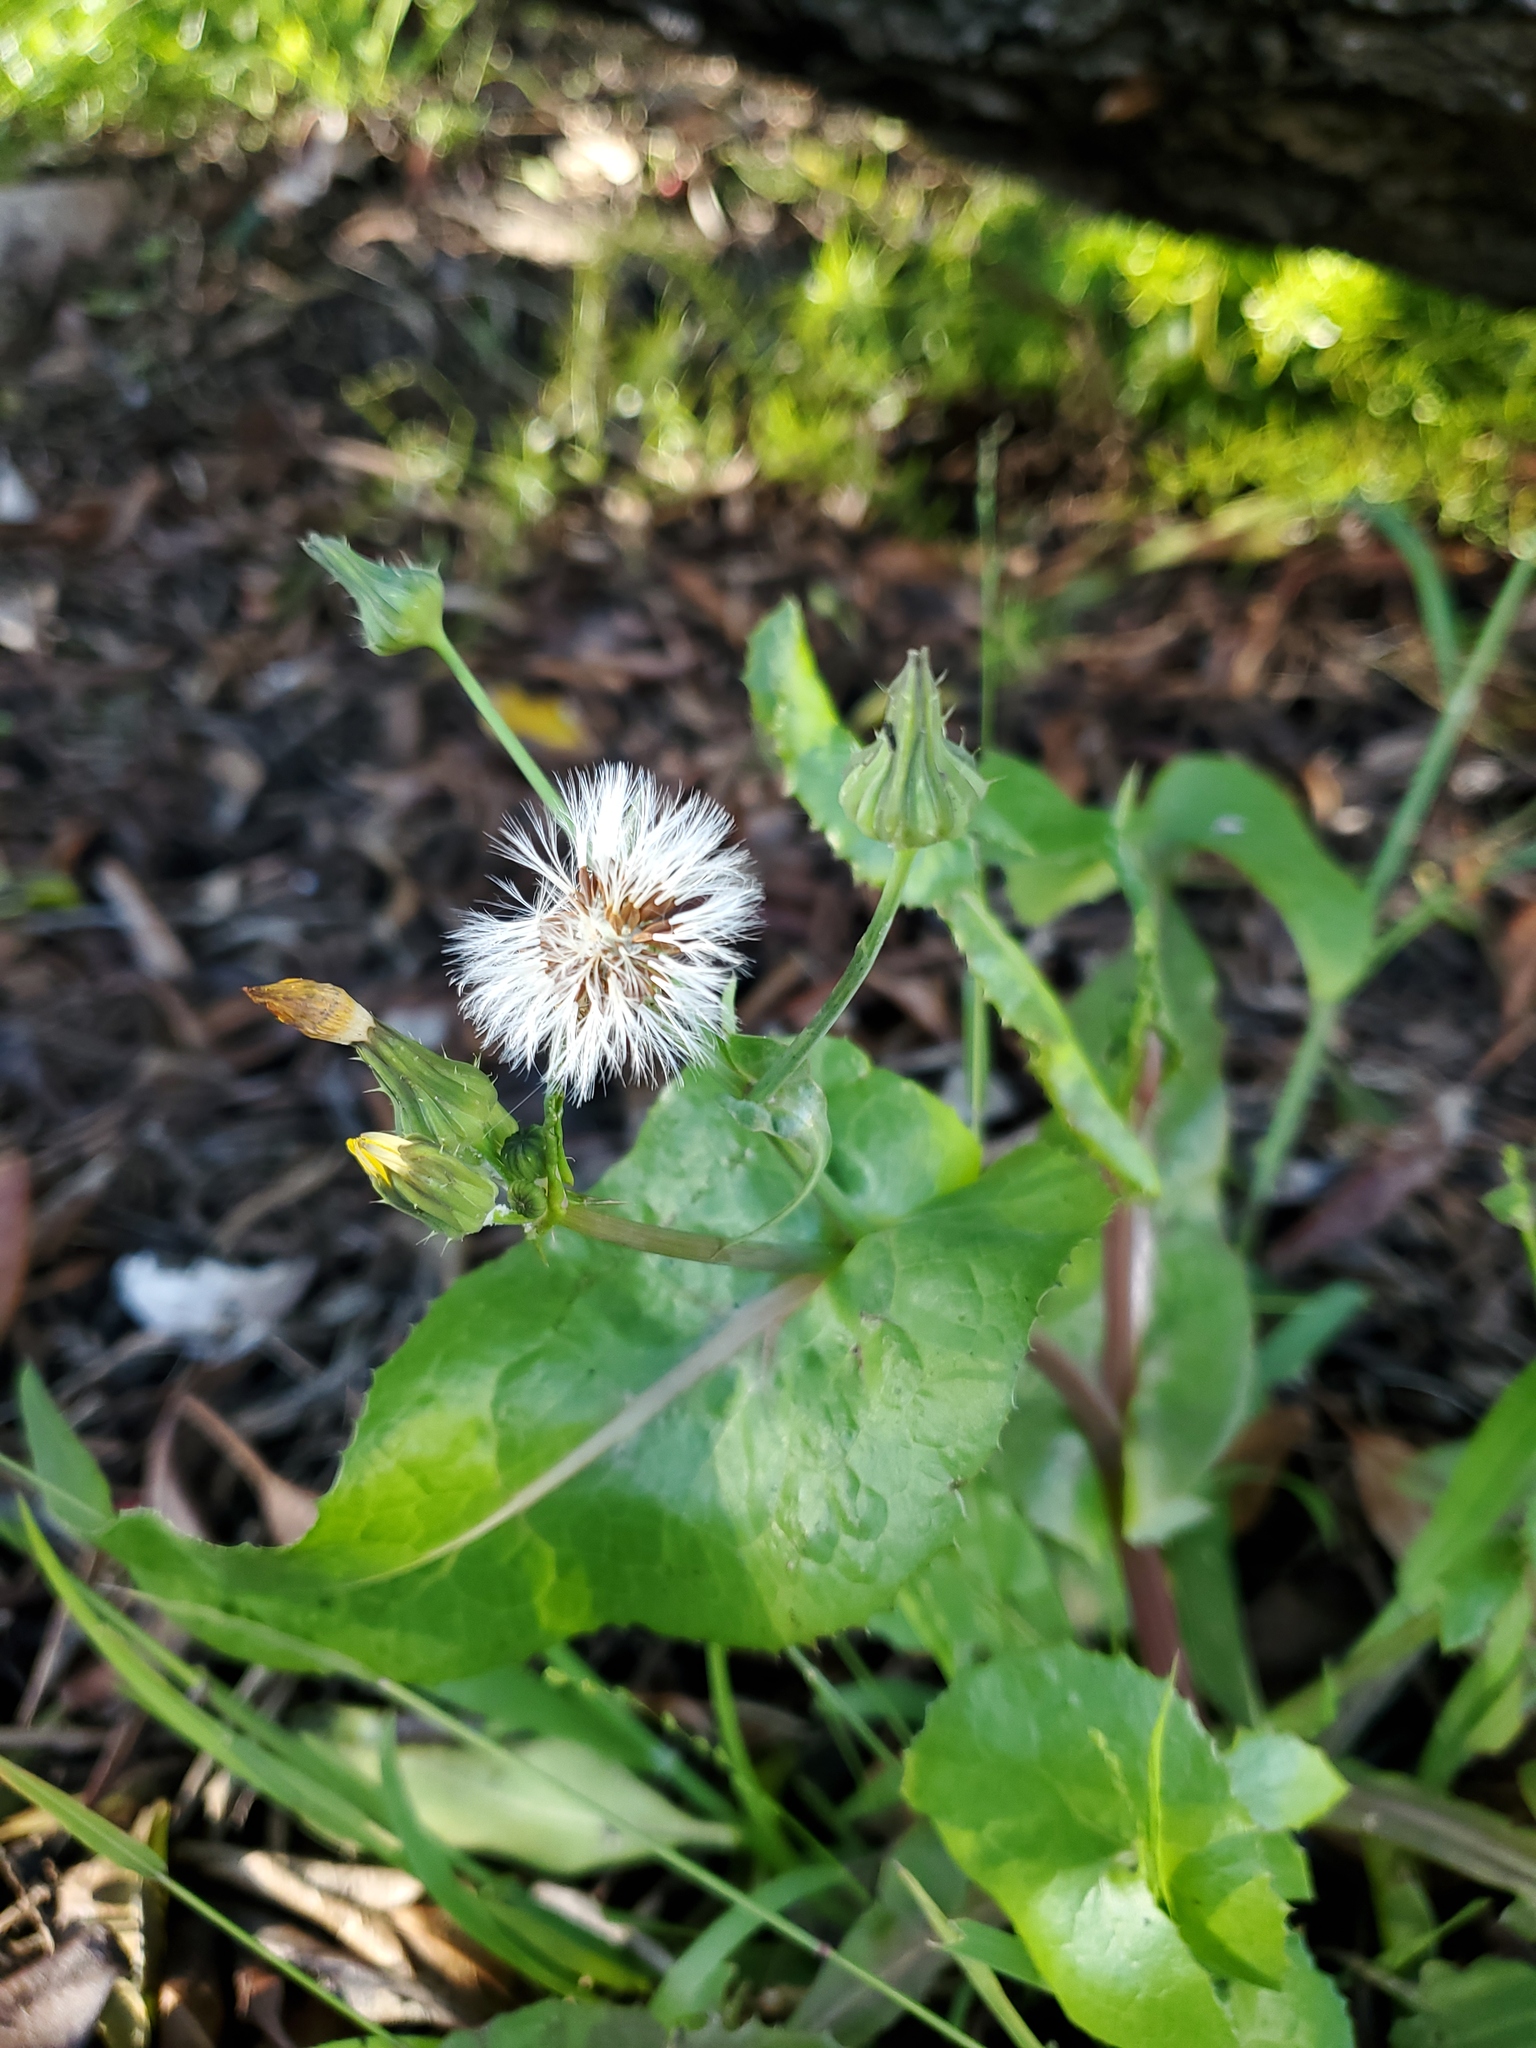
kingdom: Plantae
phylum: Tracheophyta
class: Magnoliopsida
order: Asterales
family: Asteraceae
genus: Sonchus
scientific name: Sonchus oleraceus
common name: Common sowthistle
